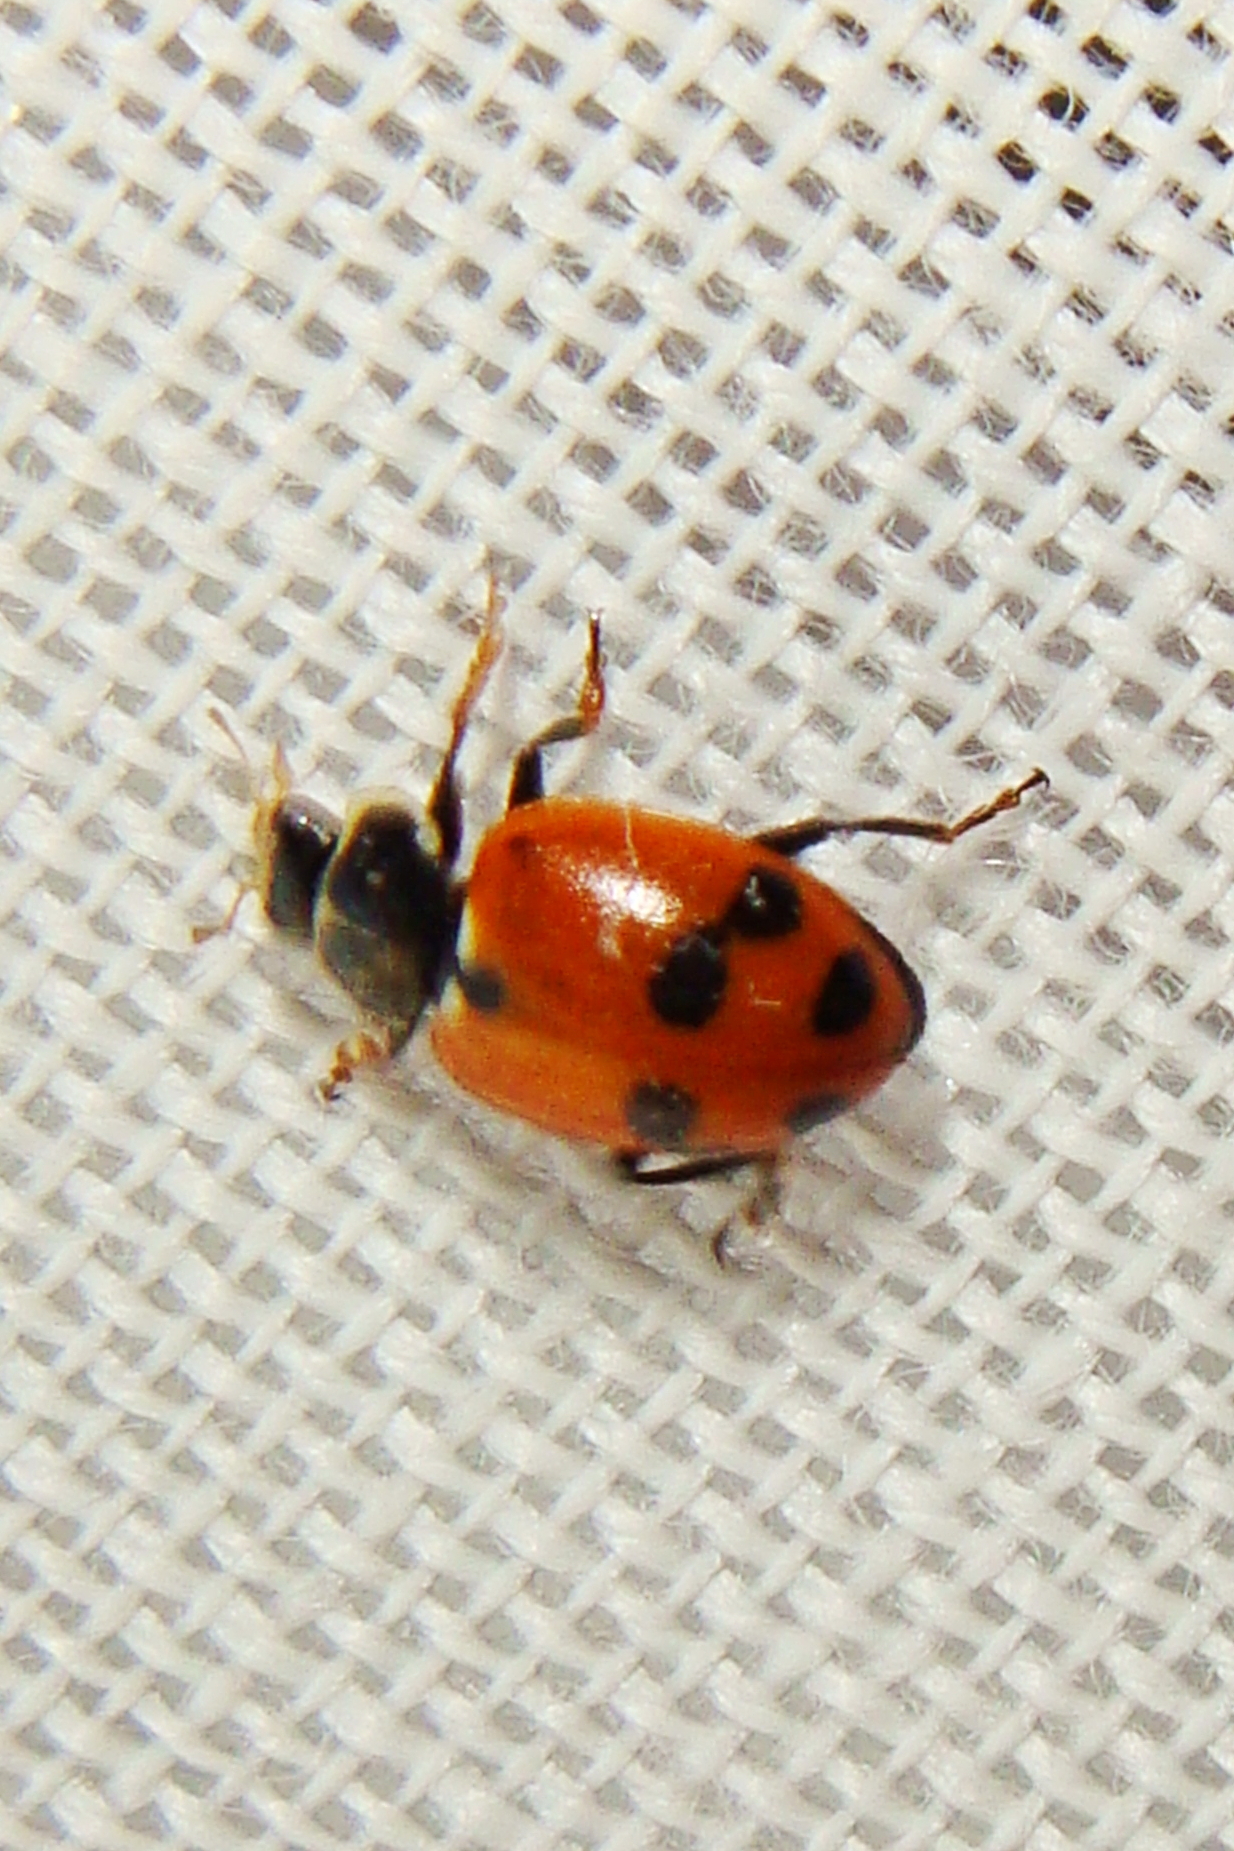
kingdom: Animalia
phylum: Arthropoda
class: Insecta
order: Coleoptera
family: Coccinellidae
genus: Hippodamia
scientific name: Hippodamia variegata
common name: Ladybird beetle
